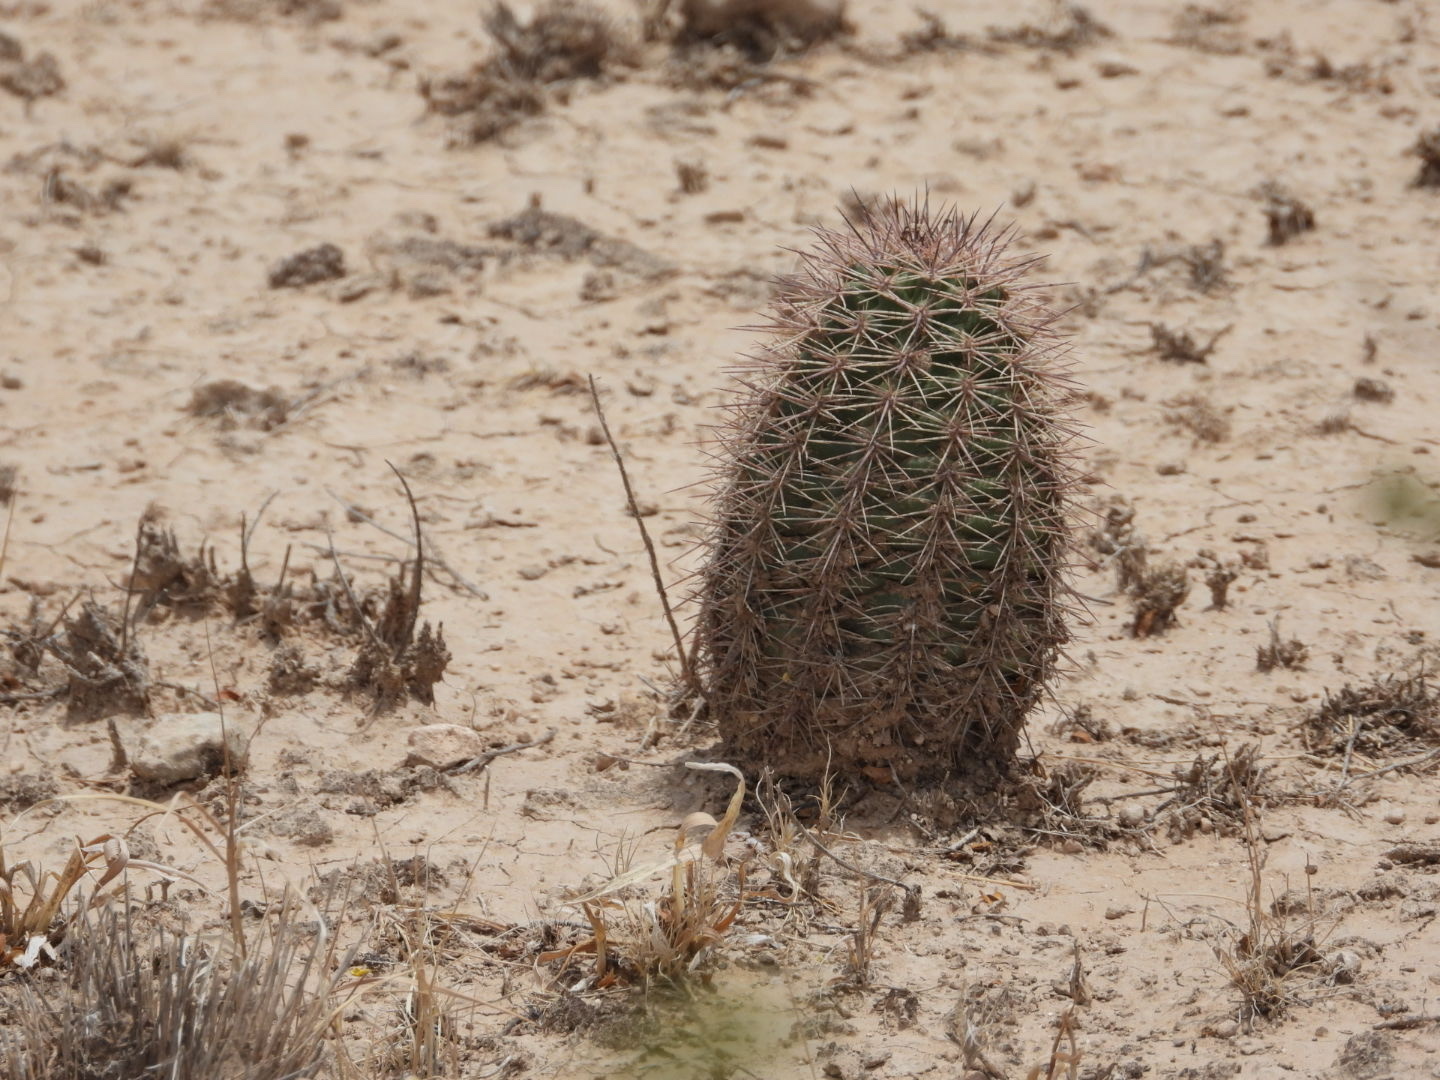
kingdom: Plantae
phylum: Tracheophyta
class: Magnoliopsida
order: Caryophyllales
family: Cactaceae
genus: Echinocereus
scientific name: Echinocereus roetteri
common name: Lloyd's hedgehog cactus
